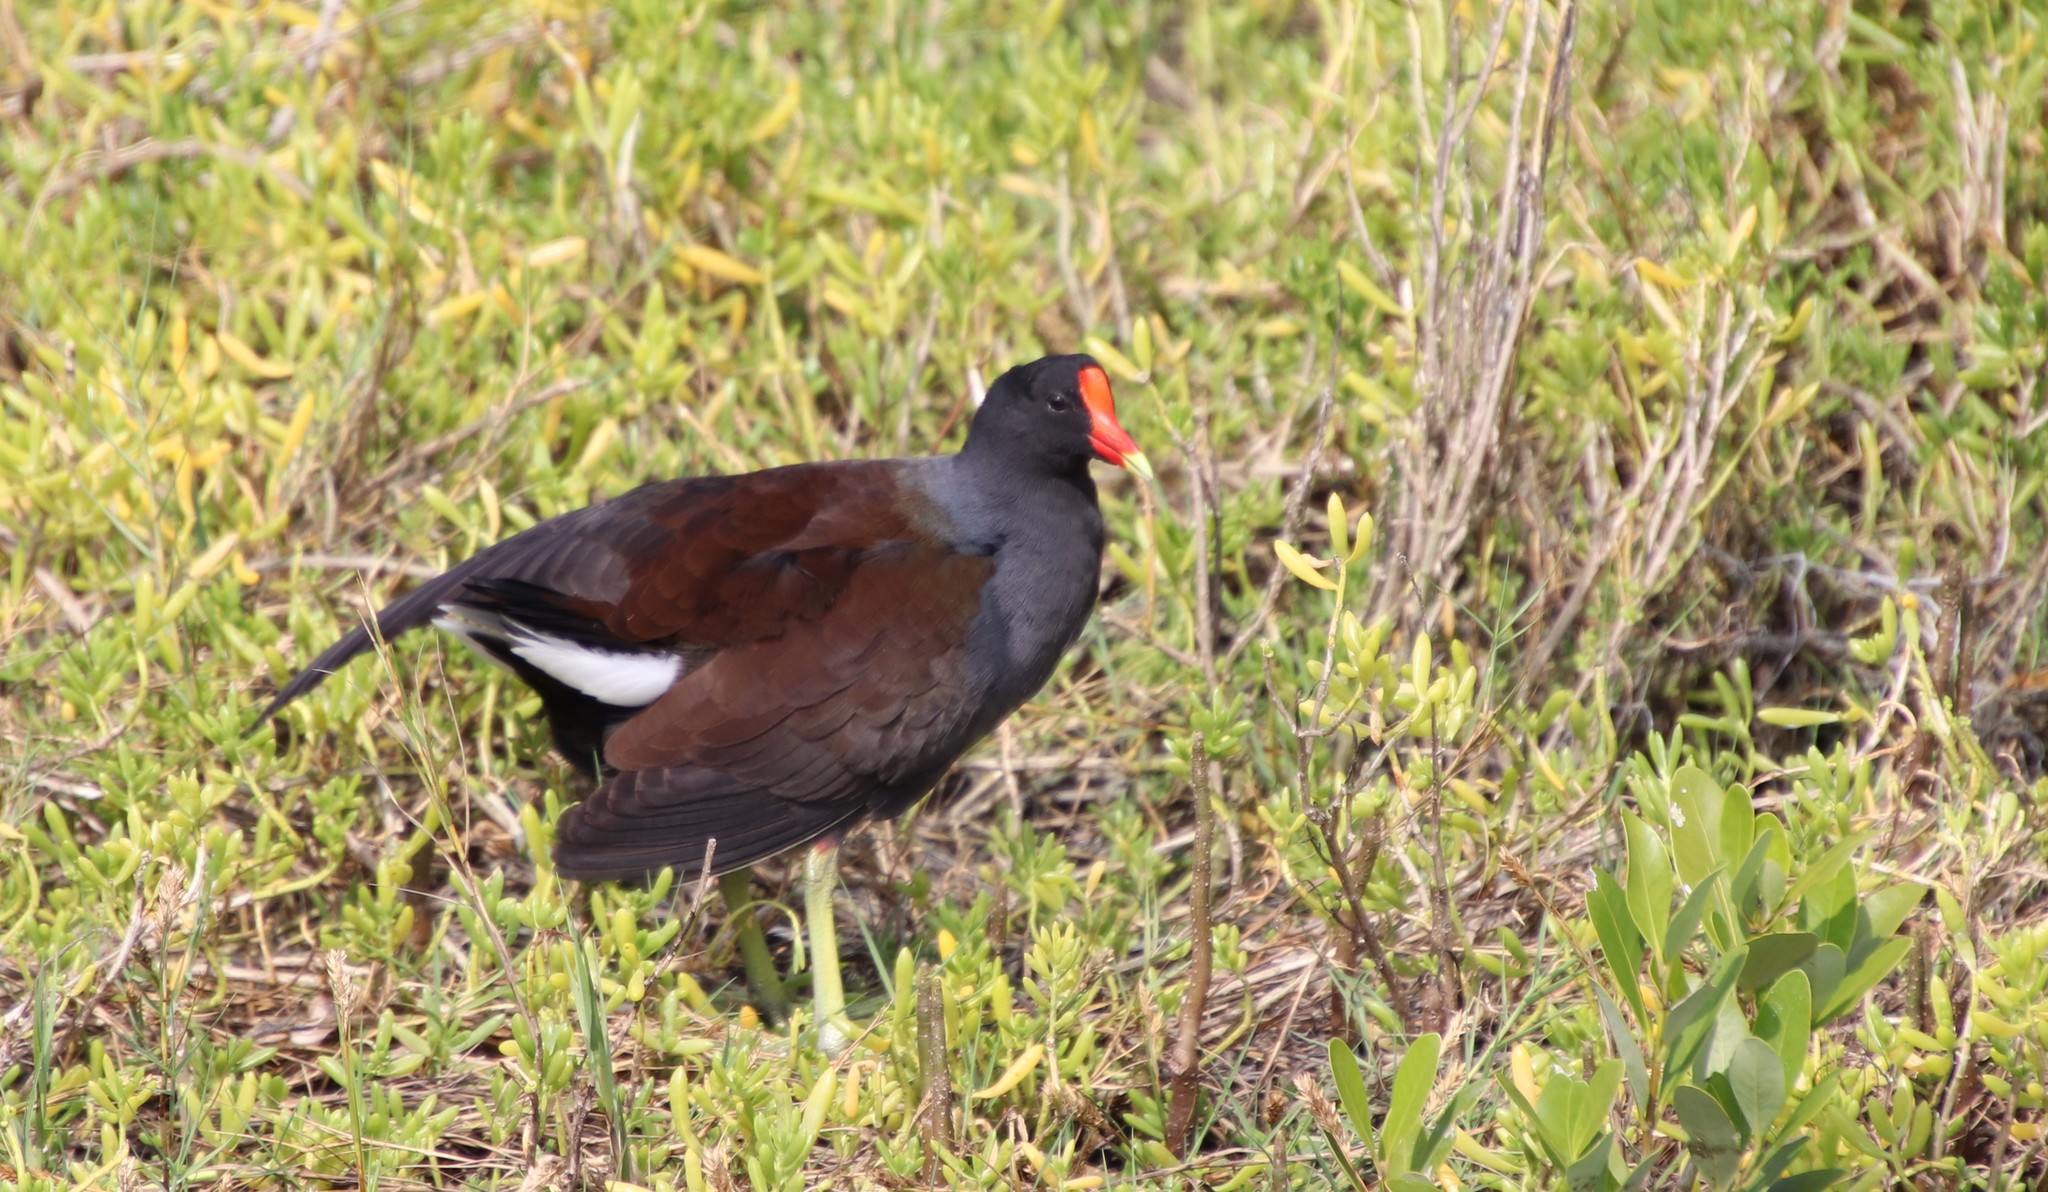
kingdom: Animalia
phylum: Chordata
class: Aves
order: Gruiformes
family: Rallidae
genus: Gallinula
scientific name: Gallinula chloropus
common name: Common moorhen
